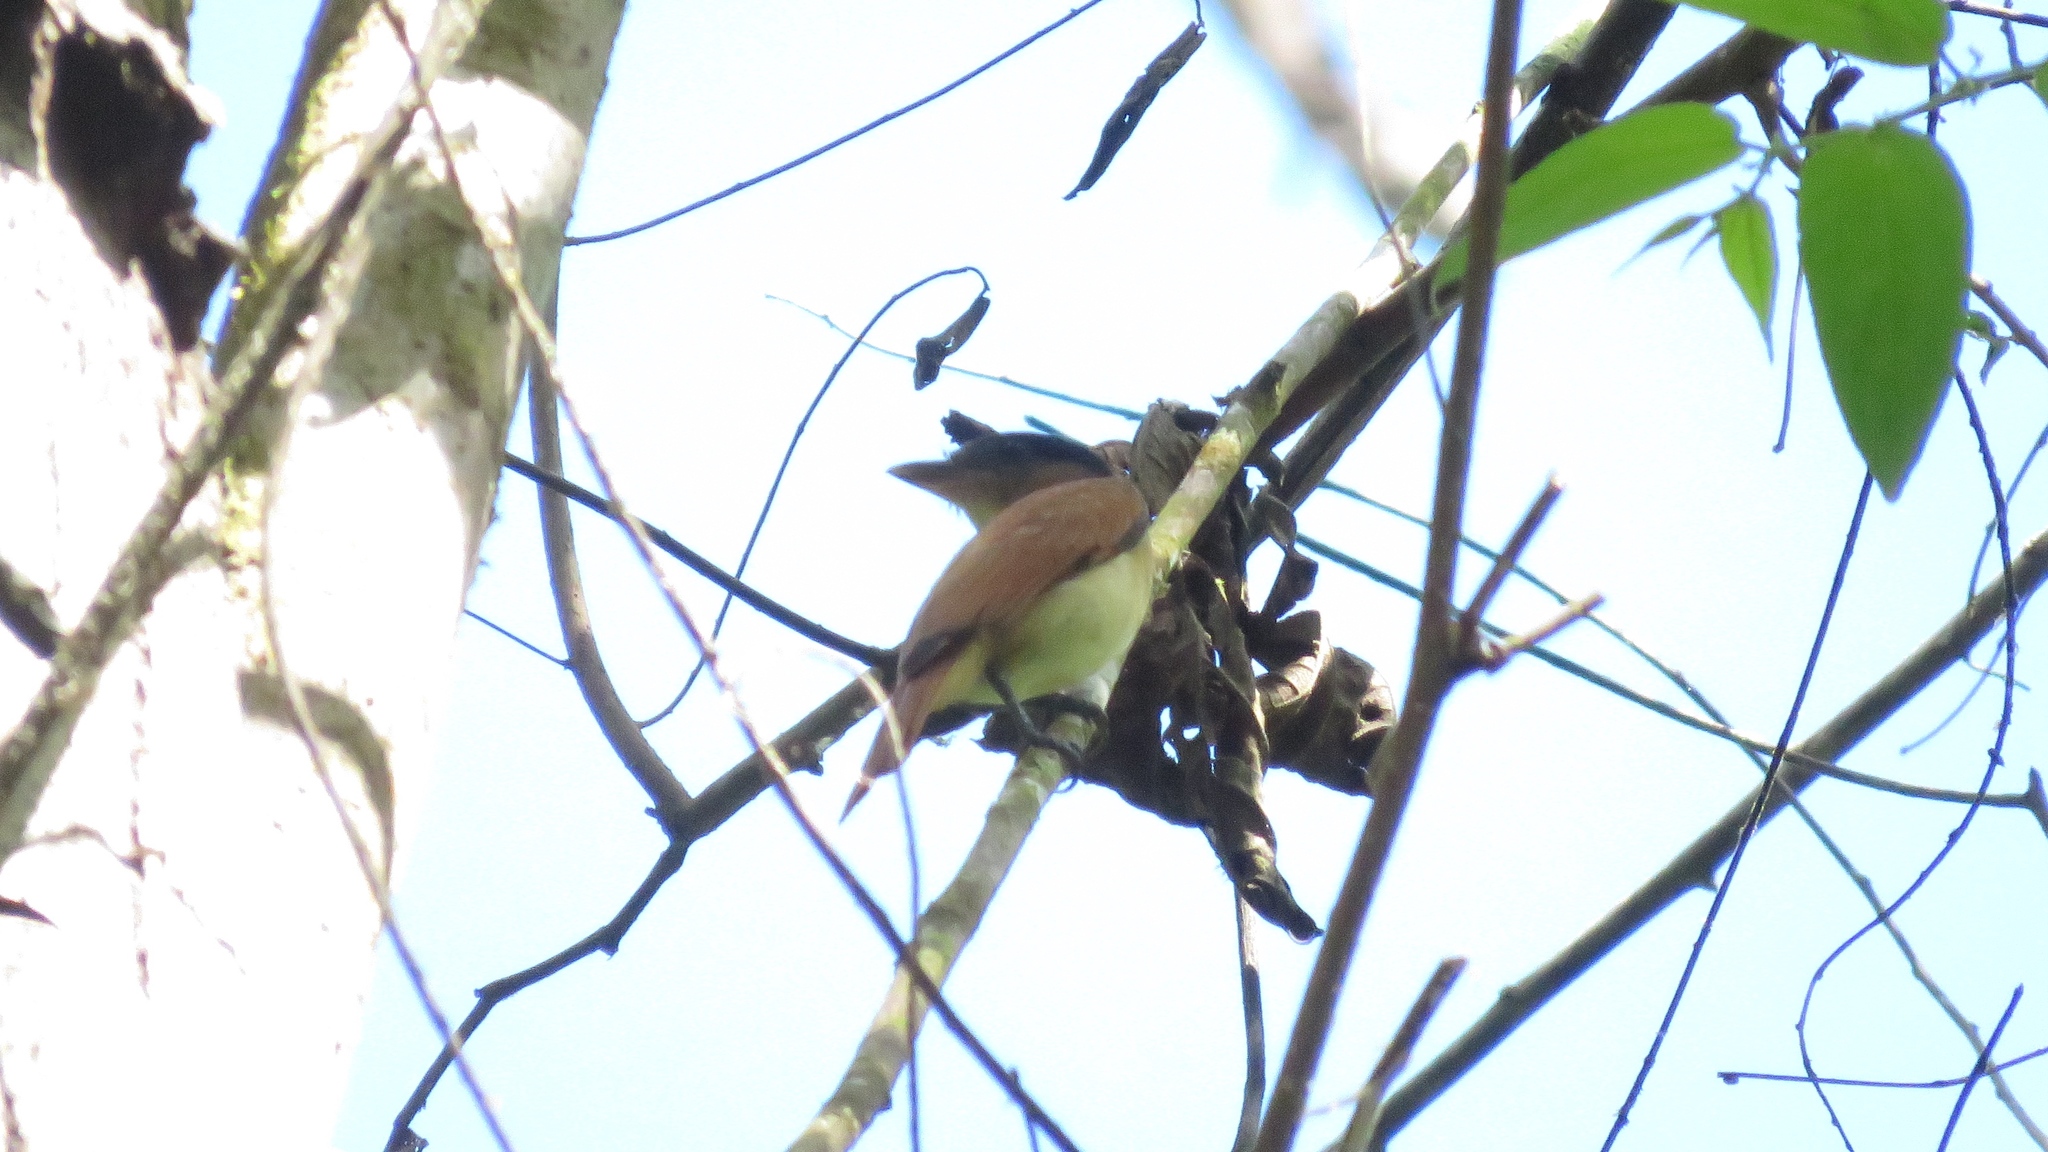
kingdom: Animalia
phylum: Chordata
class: Aves
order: Passeriformes
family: Cotingidae
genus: Pachyramphus
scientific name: Pachyramphus aglaiae
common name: Rose-throated becard
